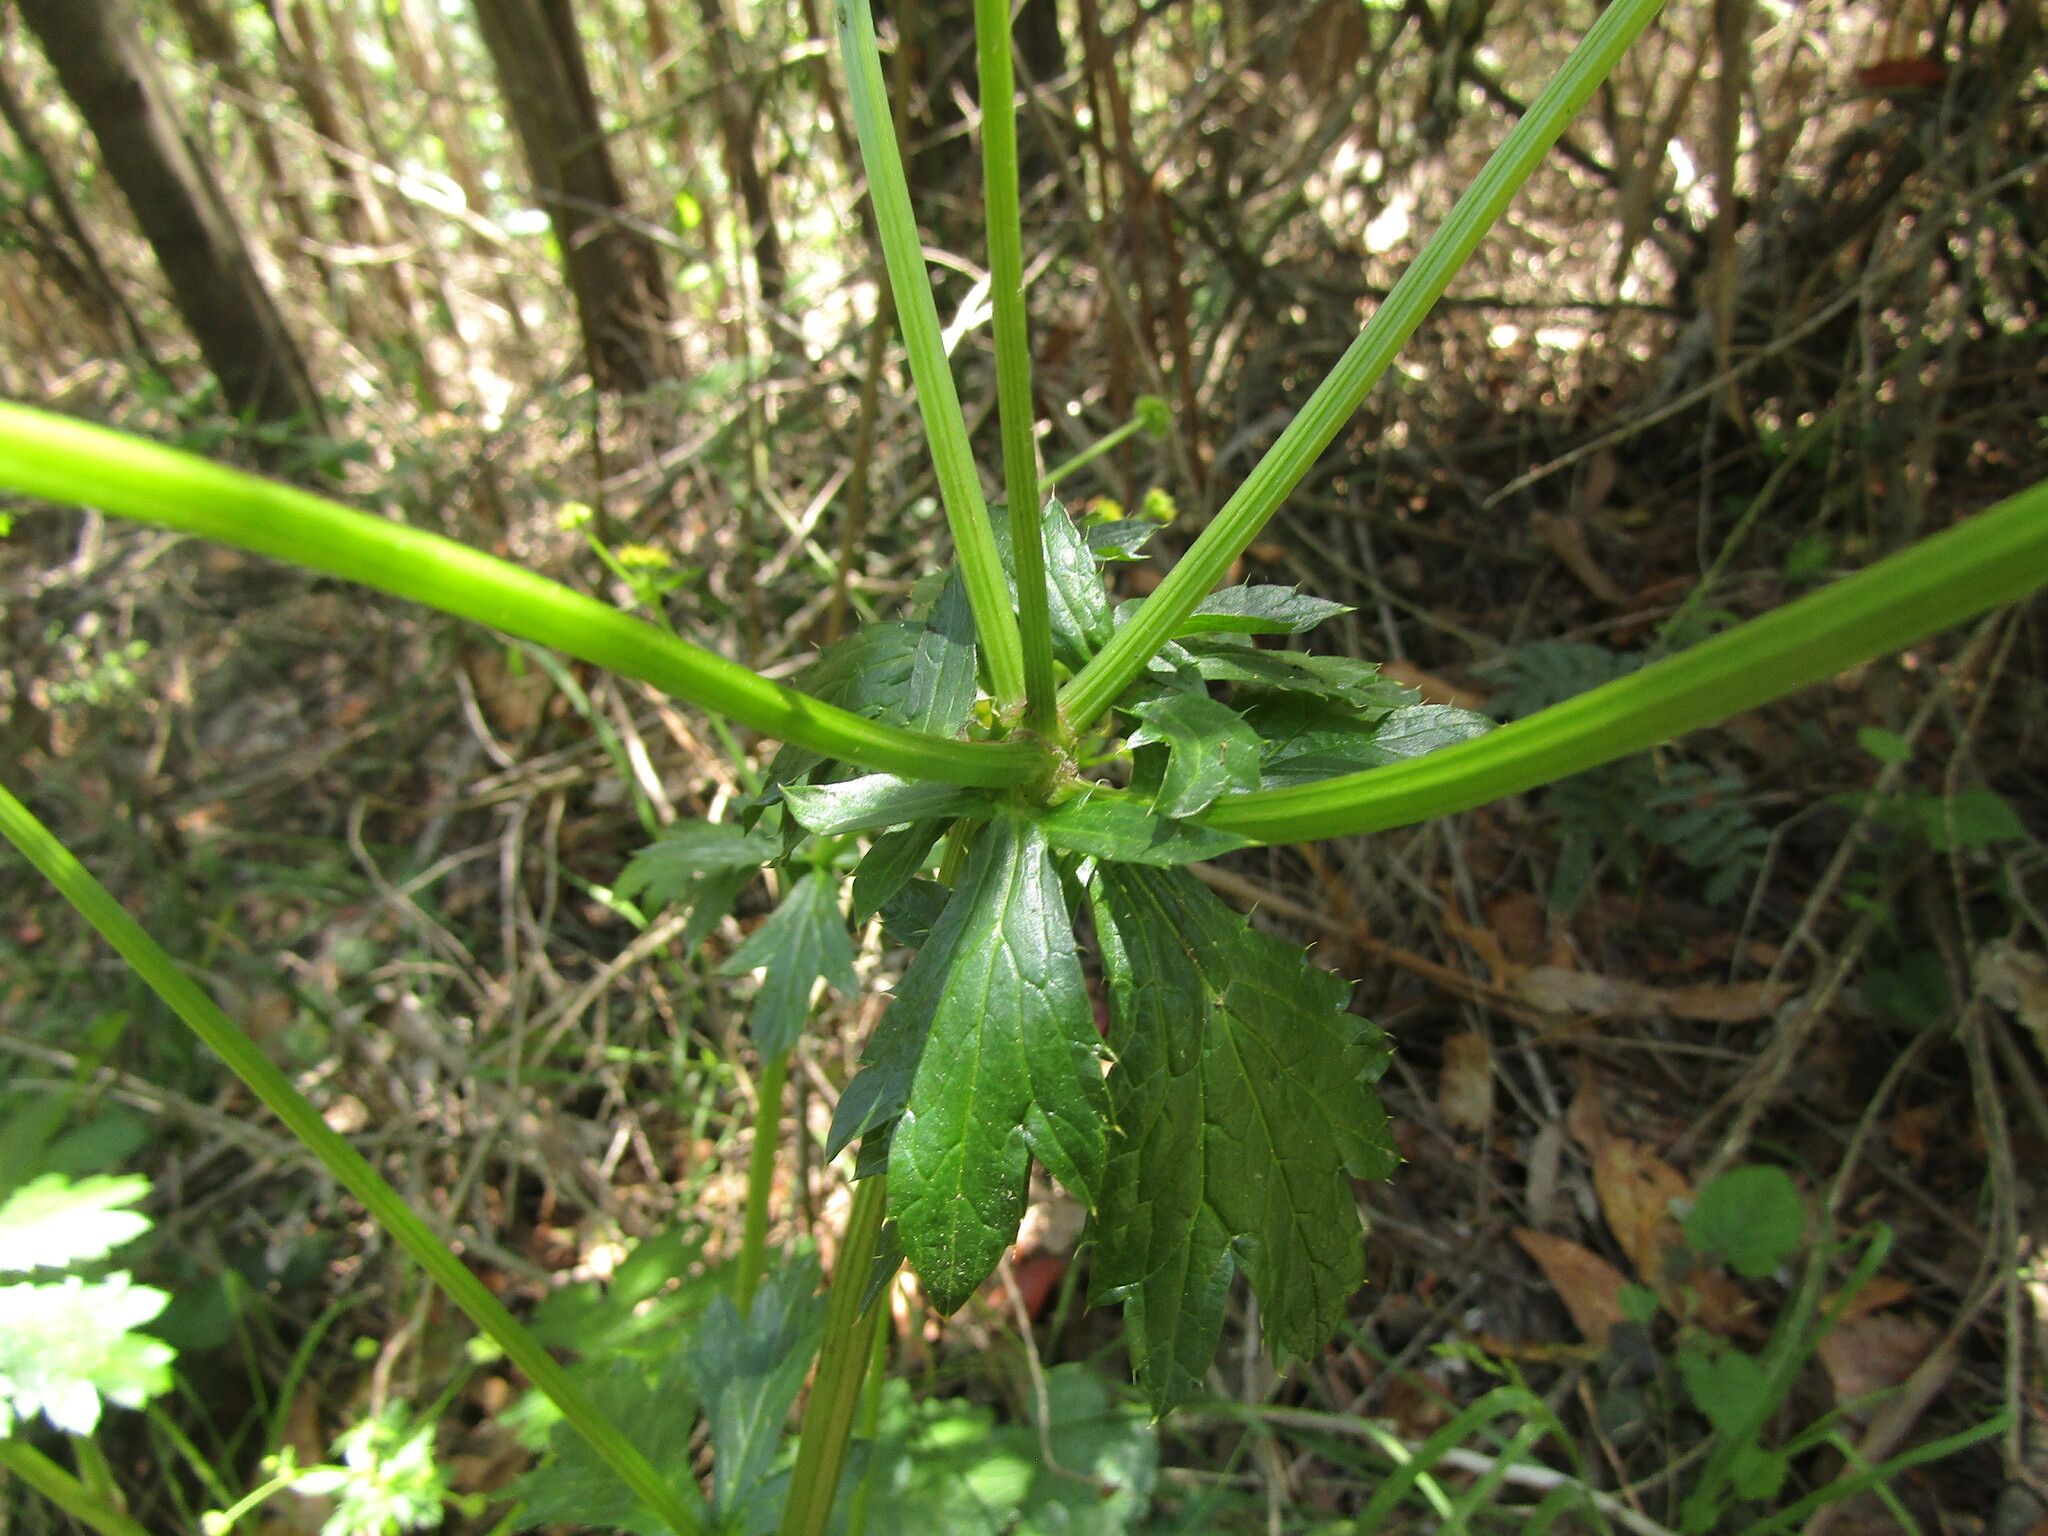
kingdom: Plantae
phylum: Tracheophyta
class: Magnoliopsida
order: Apiales
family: Apiaceae
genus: Sanicula
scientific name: Sanicula crassicaulis
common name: Western snakeroot
